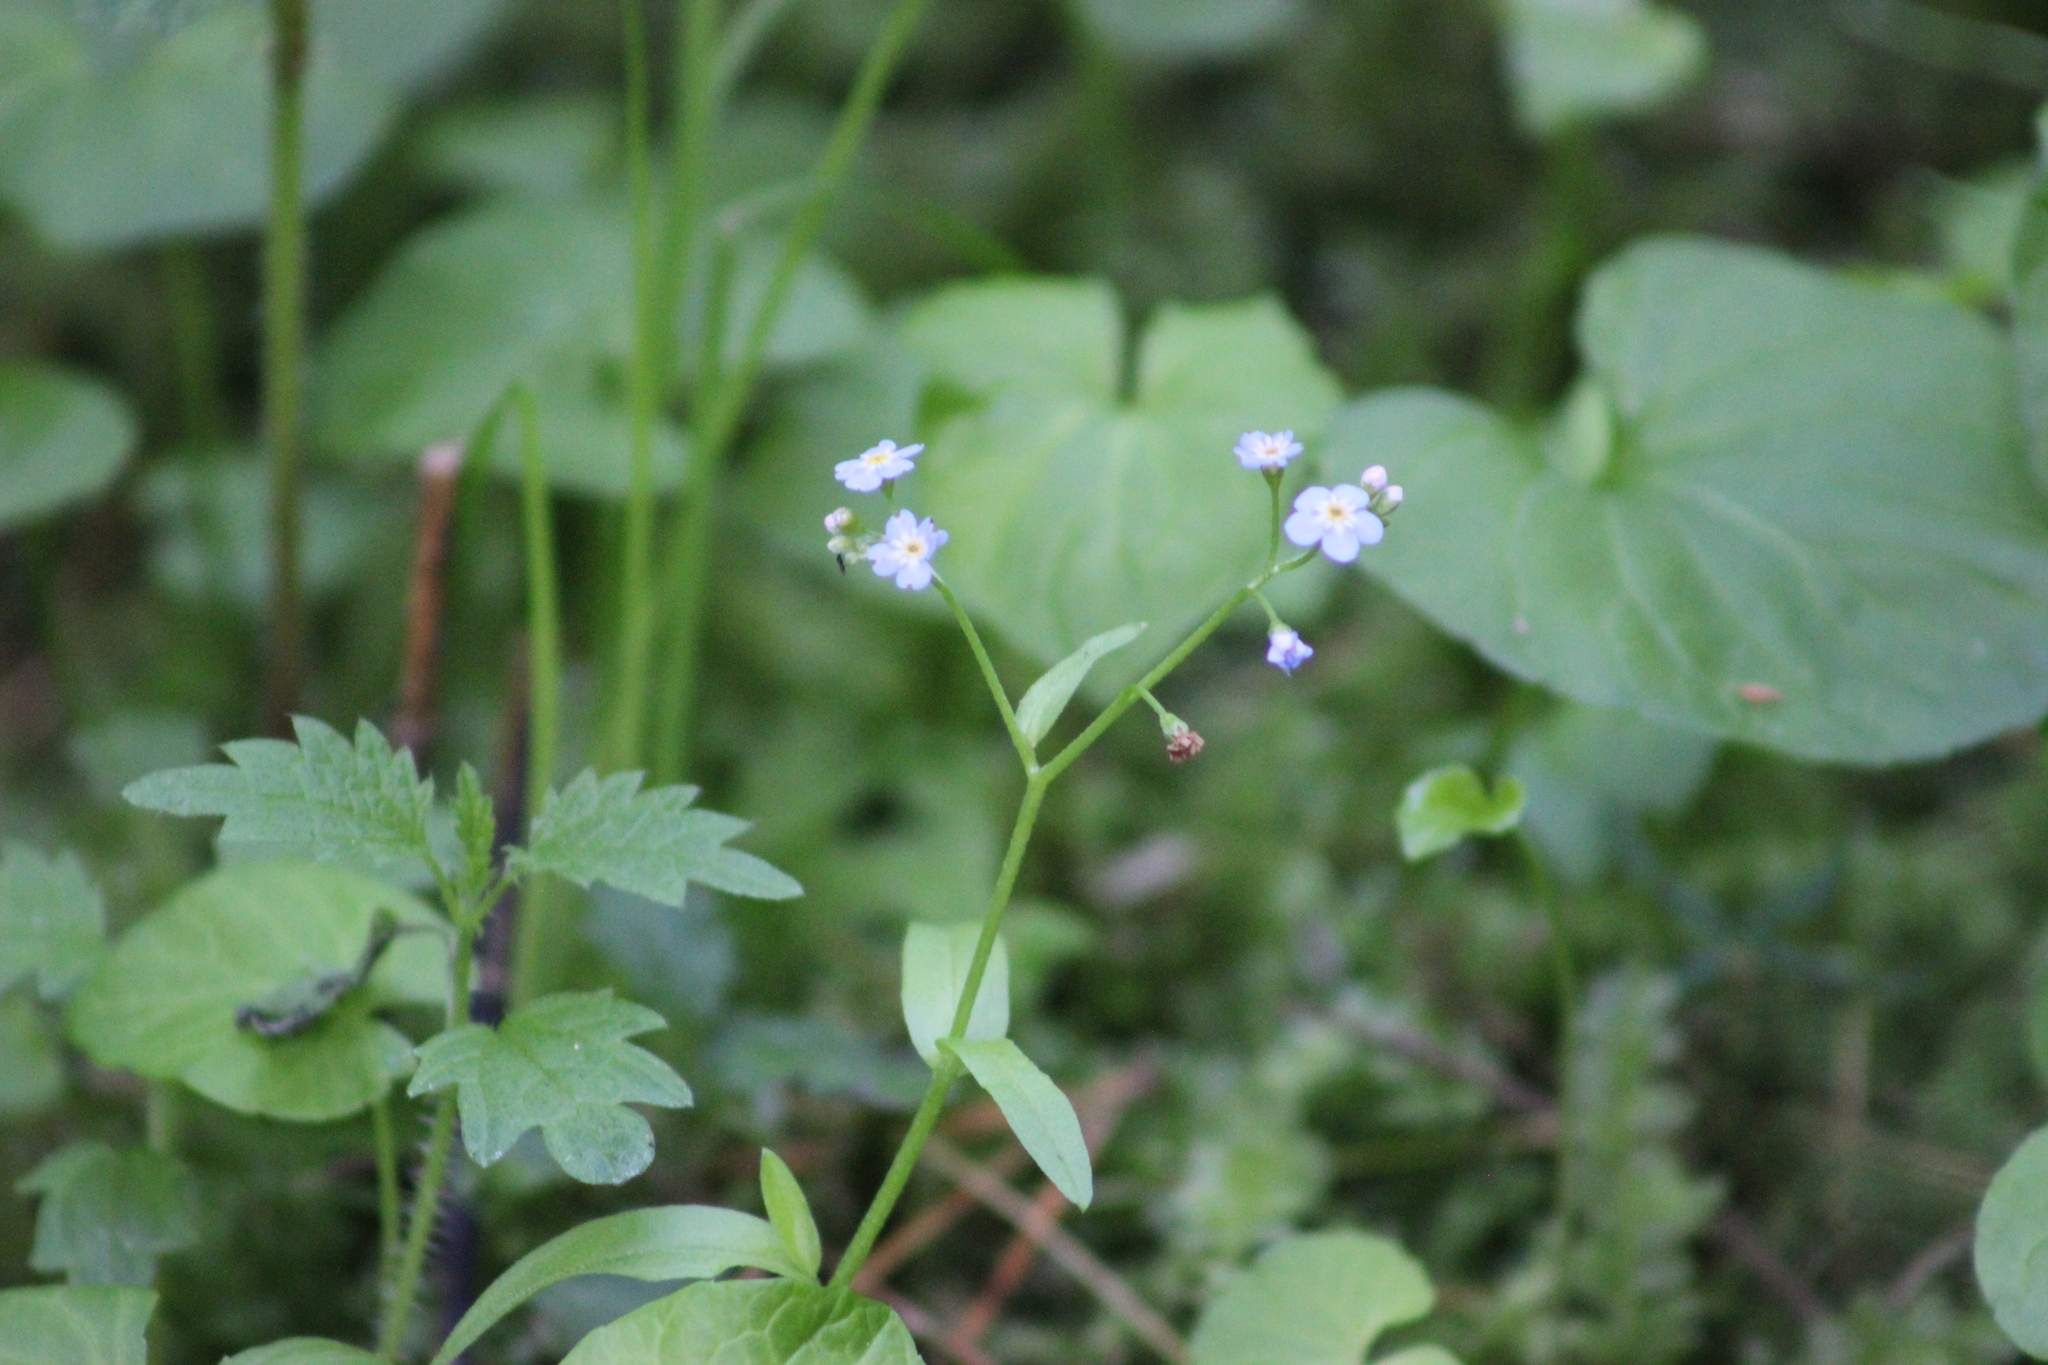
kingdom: Plantae
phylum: Tracheophyta
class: Magnoliopsida
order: Boraginales
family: Boraginaceae
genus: Myosotis
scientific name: Myosotis scorpioides
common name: Water forget-me-not
